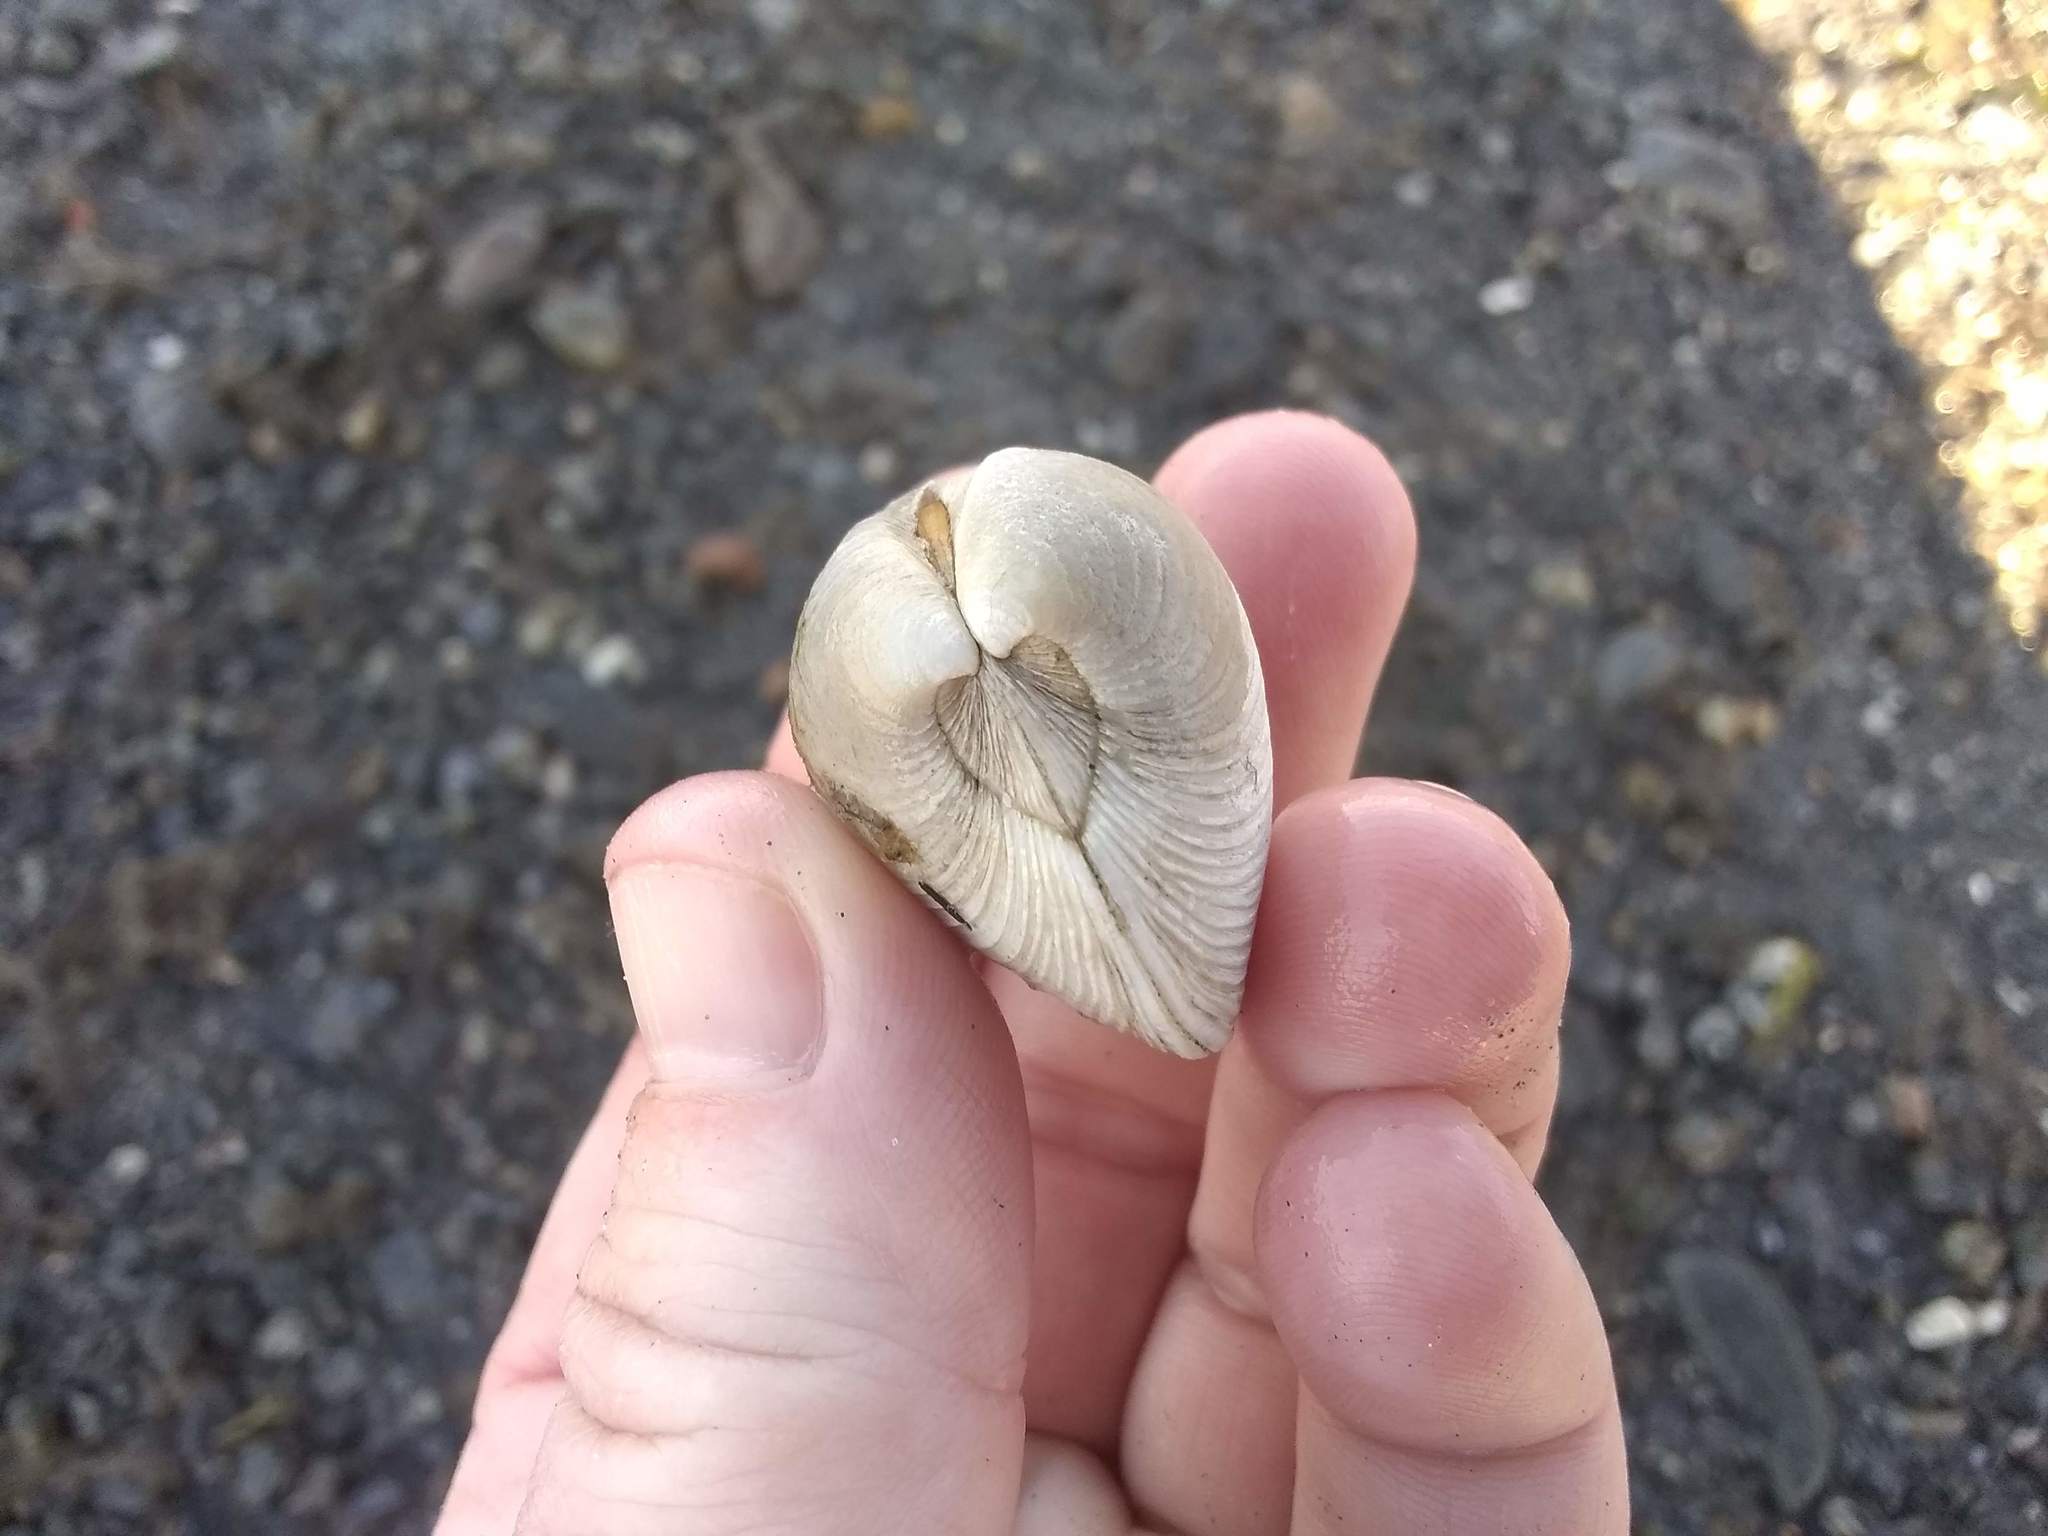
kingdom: Animalia
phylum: Mollusca
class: Bivalvia
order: Venerida
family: Veneridae
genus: Mercenaria
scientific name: Mercenaria mercenaria
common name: American hard-shelled clam
